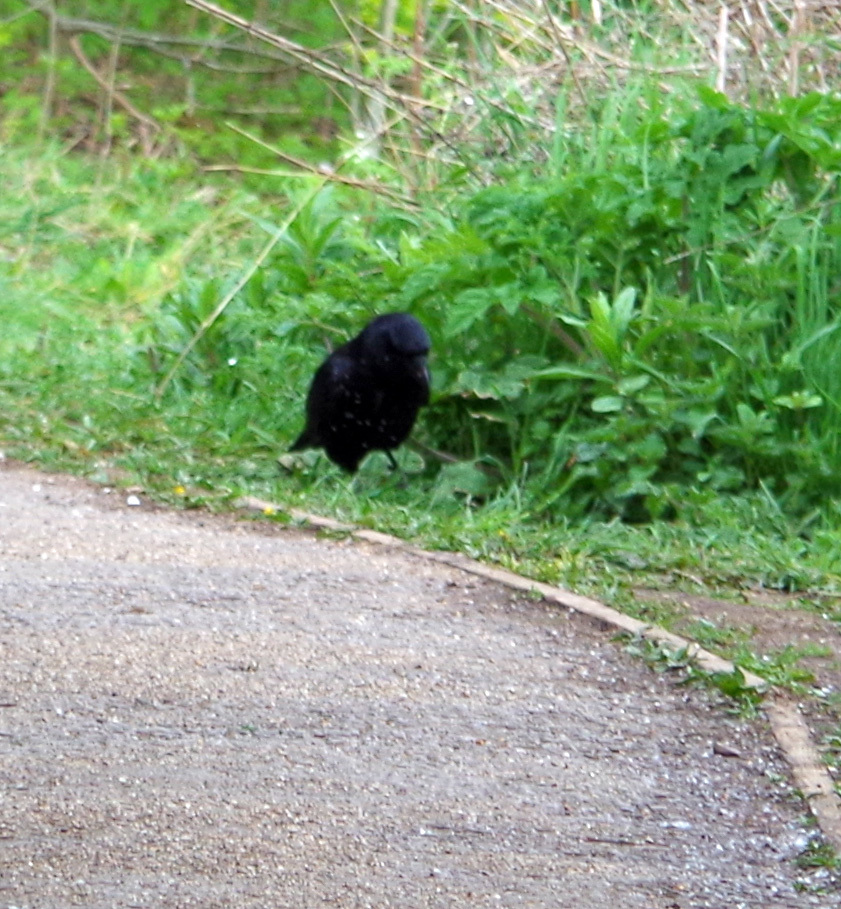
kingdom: Animalia
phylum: Chordata
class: Aves
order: Passeriformes
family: Corvidae
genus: Corvus
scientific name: Corvus corone
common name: Carrion crow
